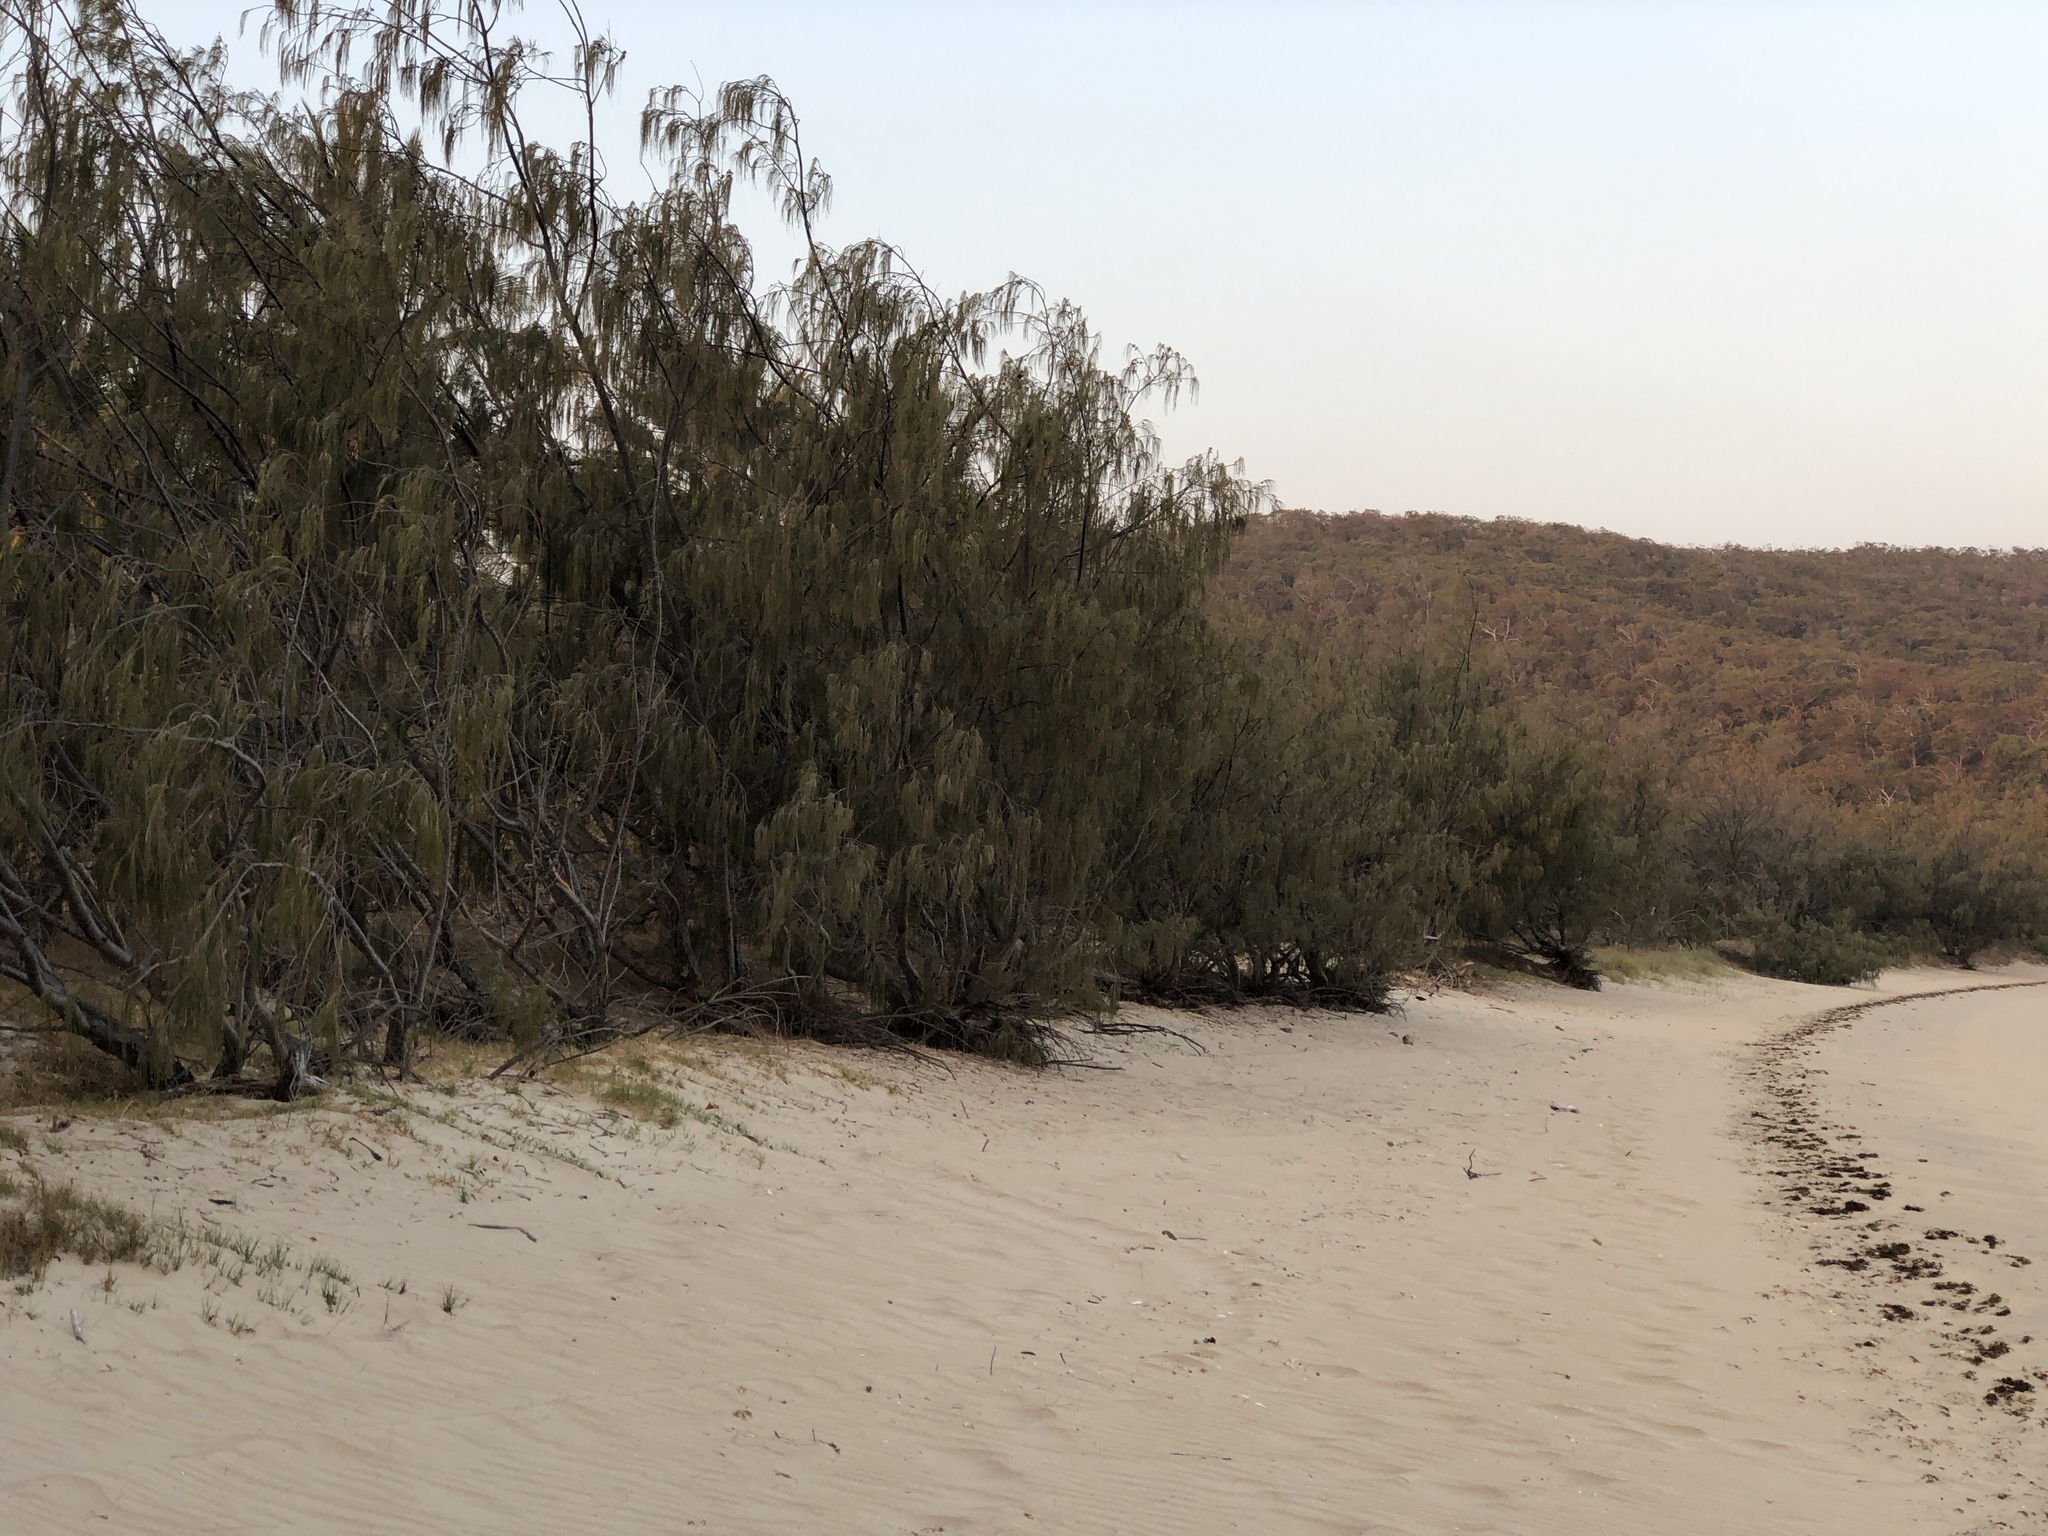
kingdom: Plantae
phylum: Tracheophyta
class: Magnoliopsida
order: Fagales
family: Casuarinaceae
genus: Casuarina
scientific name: Casuarina equisetifolia
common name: Beach sheoak
